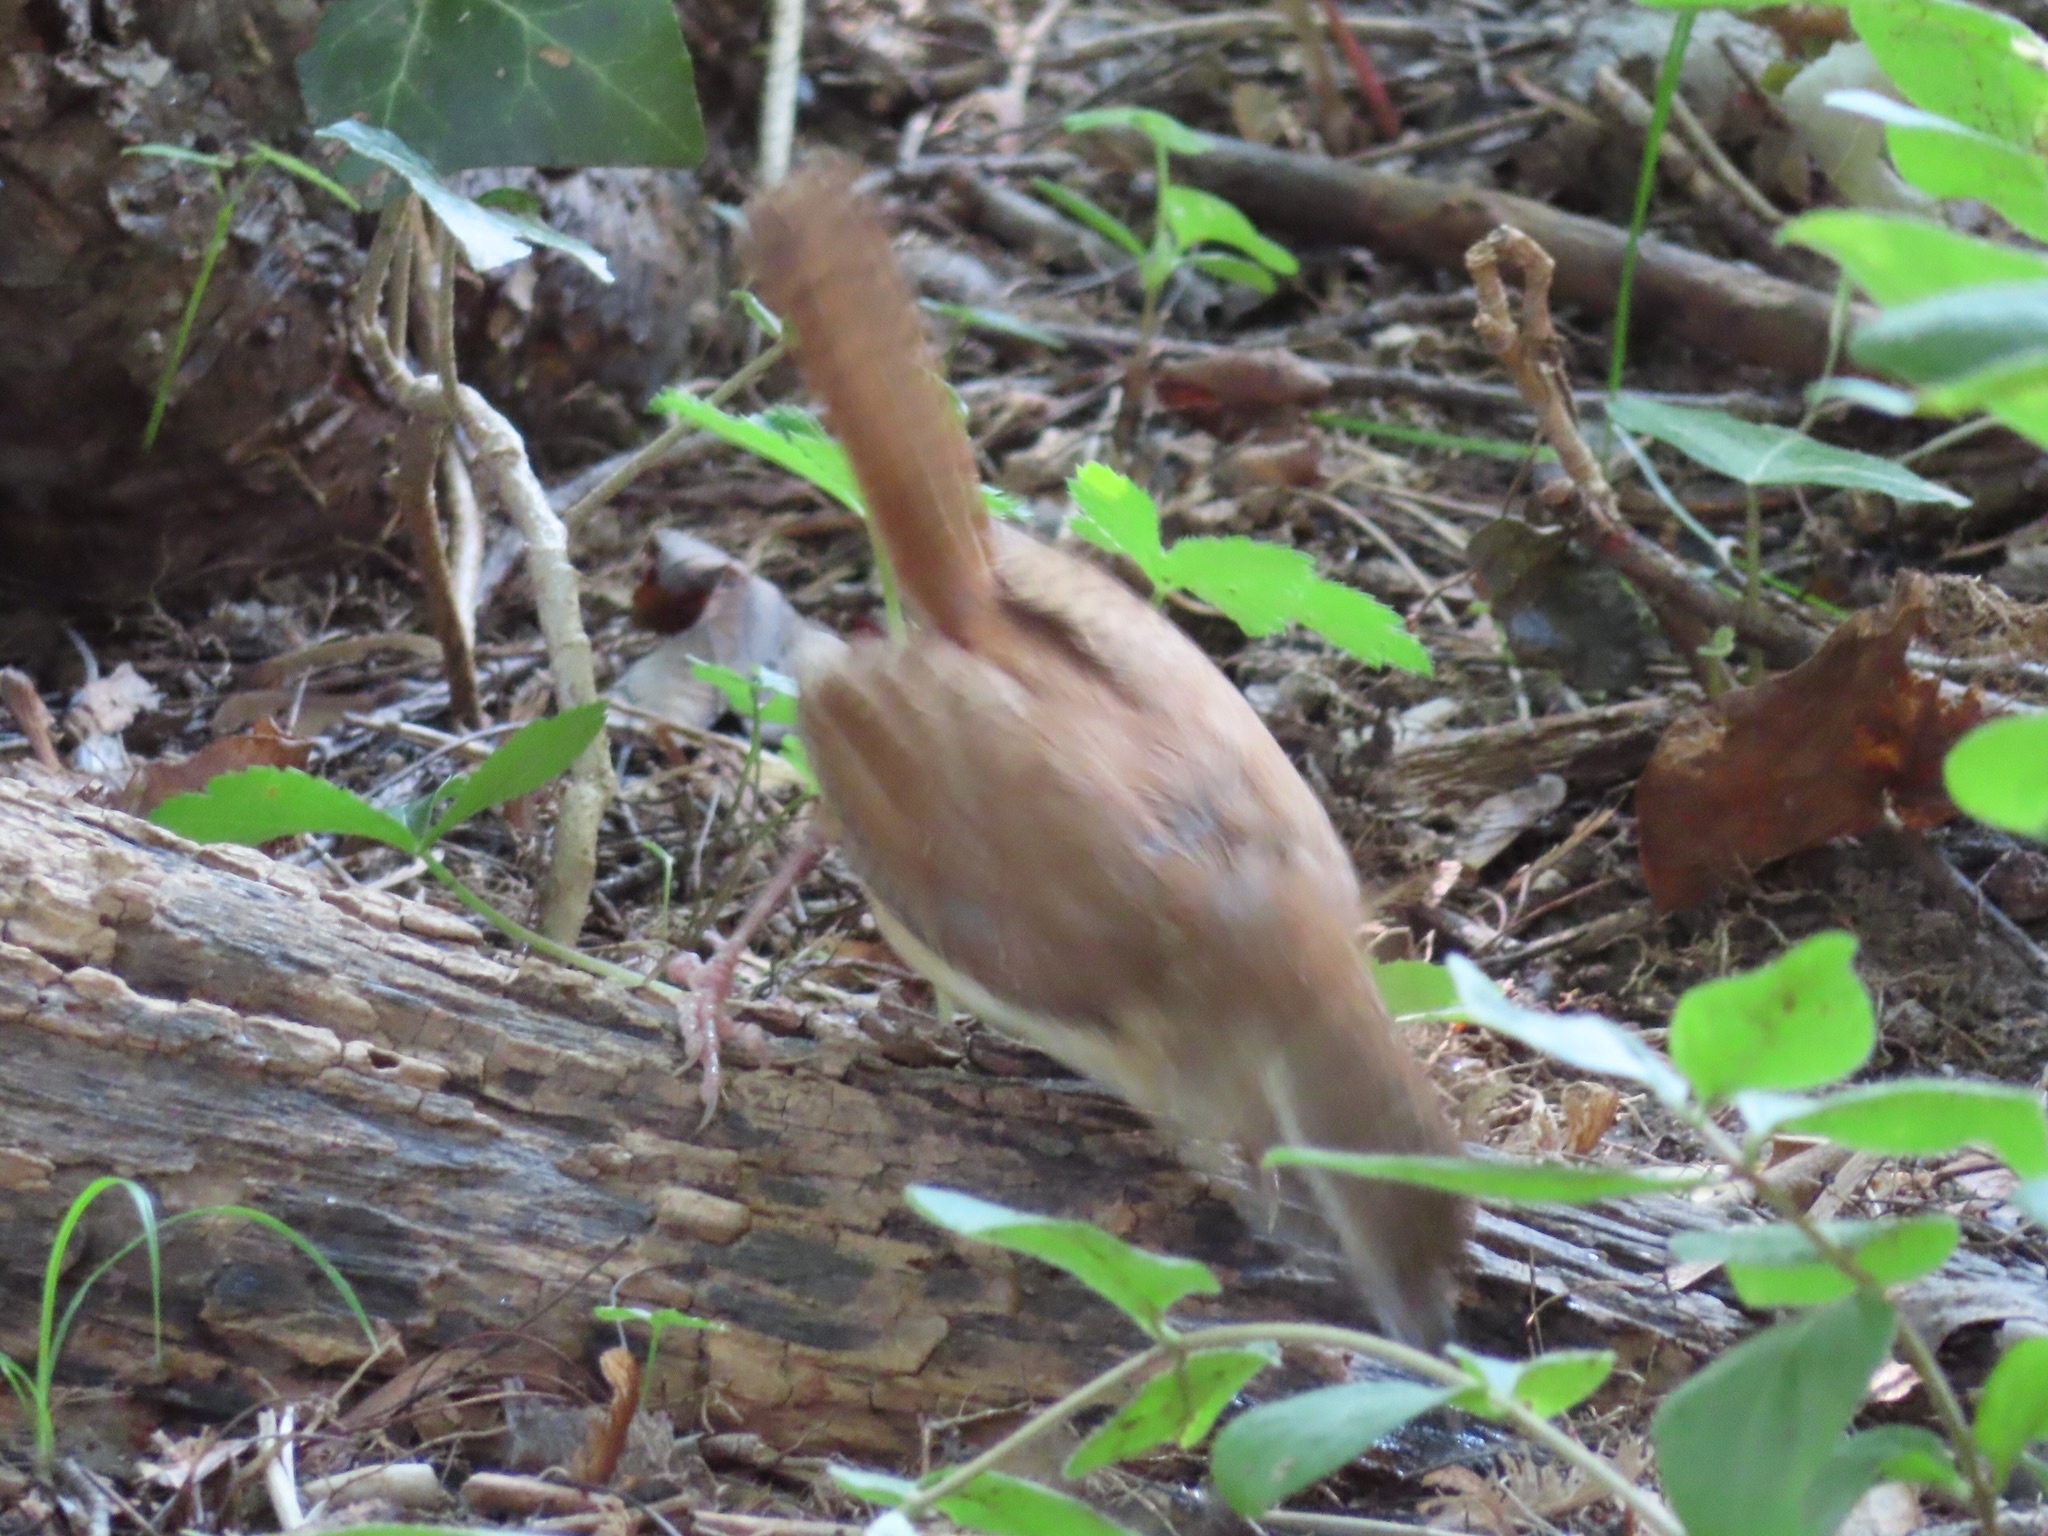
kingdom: Animalia
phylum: Chordata
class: Aves
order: Passeriformes
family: Troglodytidae
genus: Thryothorus
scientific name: Thryothorus ludovicianus
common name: Carolina wren
